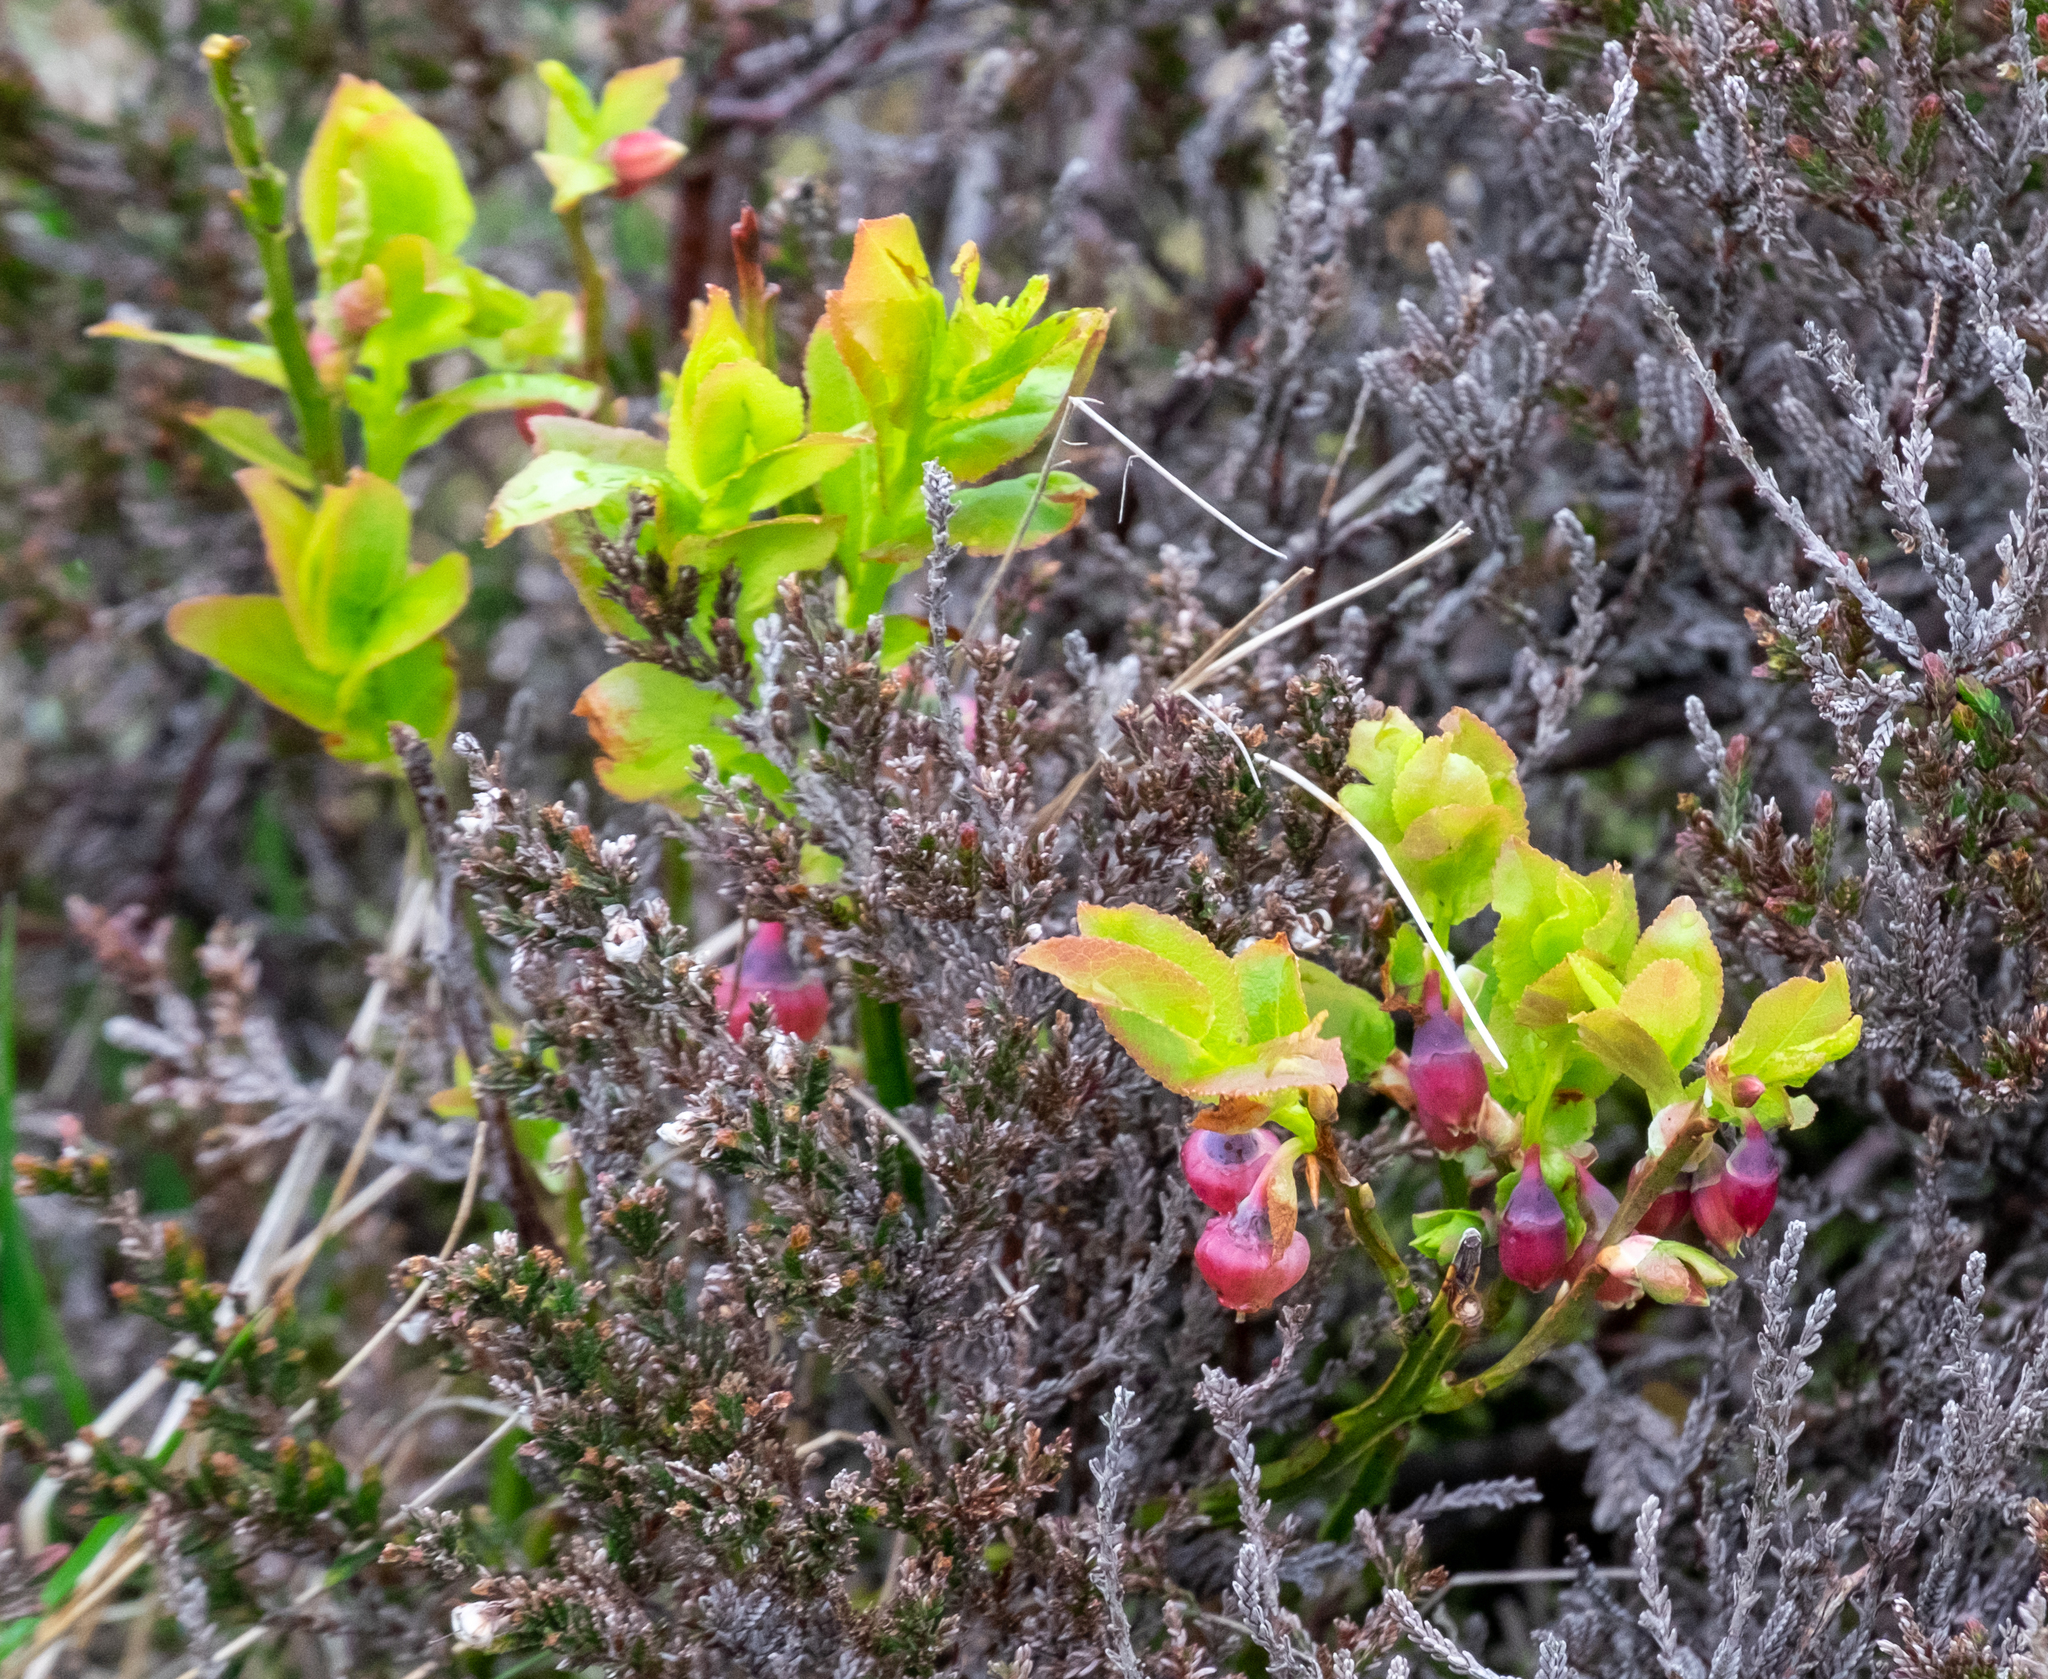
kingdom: Plantae
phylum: Tracheophyta
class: Magnoliopsida
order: Ericales
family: Ericaceae
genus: Vaccinium
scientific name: Vaccinium myrtillus
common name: Bilberry
